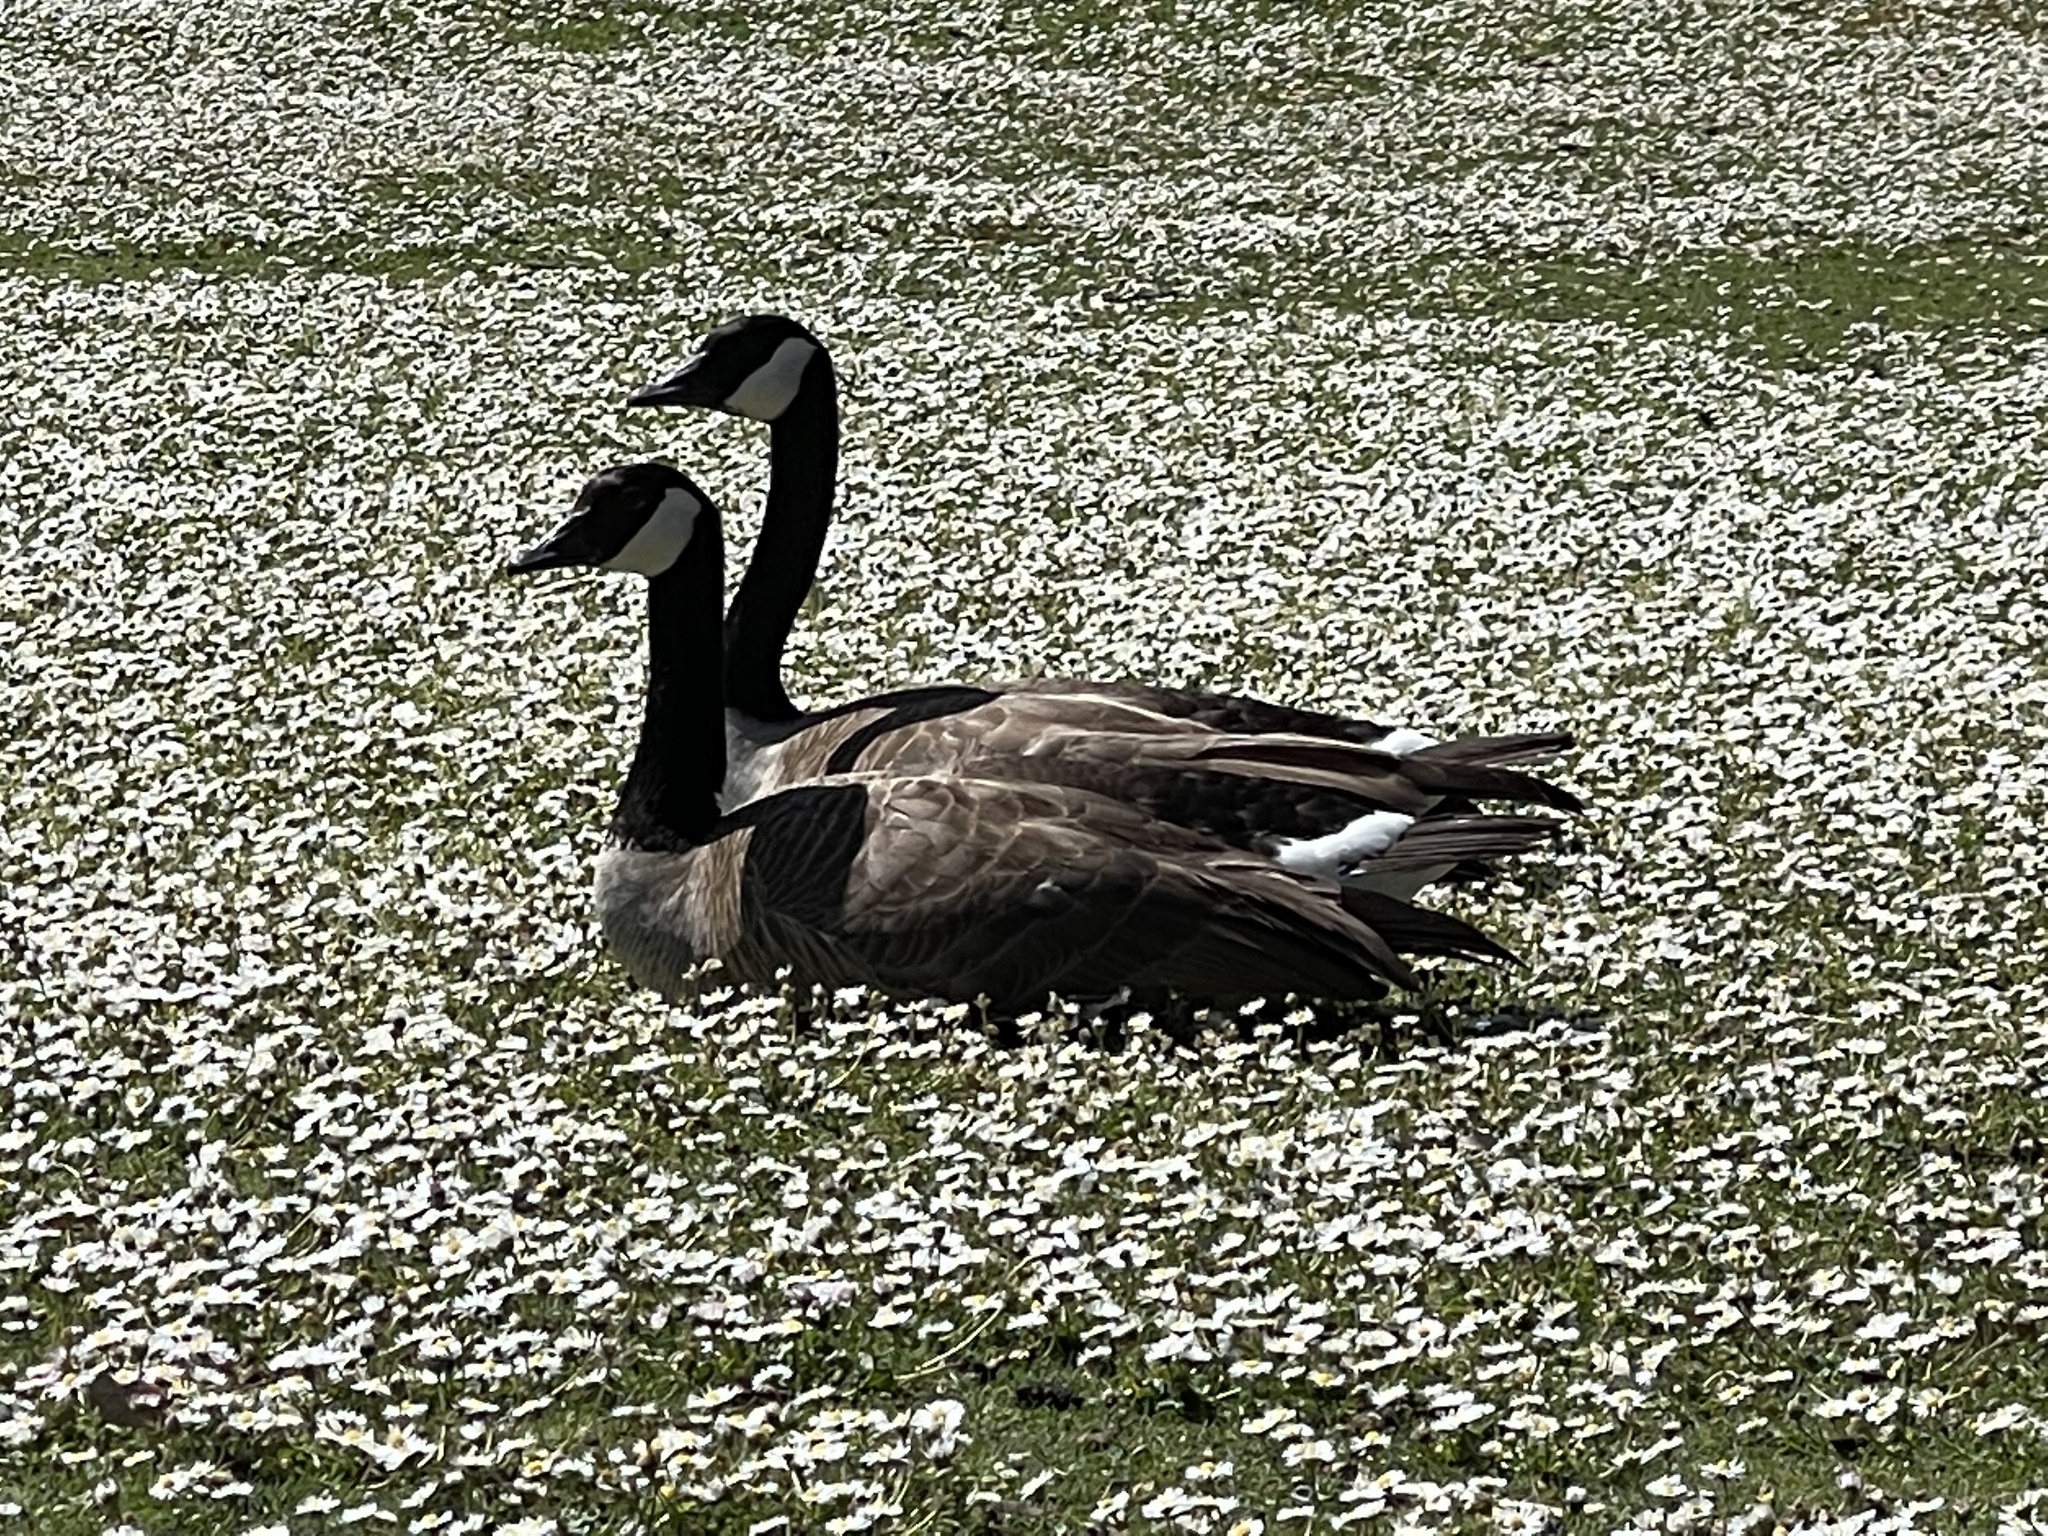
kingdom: Animalia
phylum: Chordata
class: Aves
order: Anseriformes
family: Anatidae
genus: Branta
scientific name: Branta canadensis
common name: Canada goose
